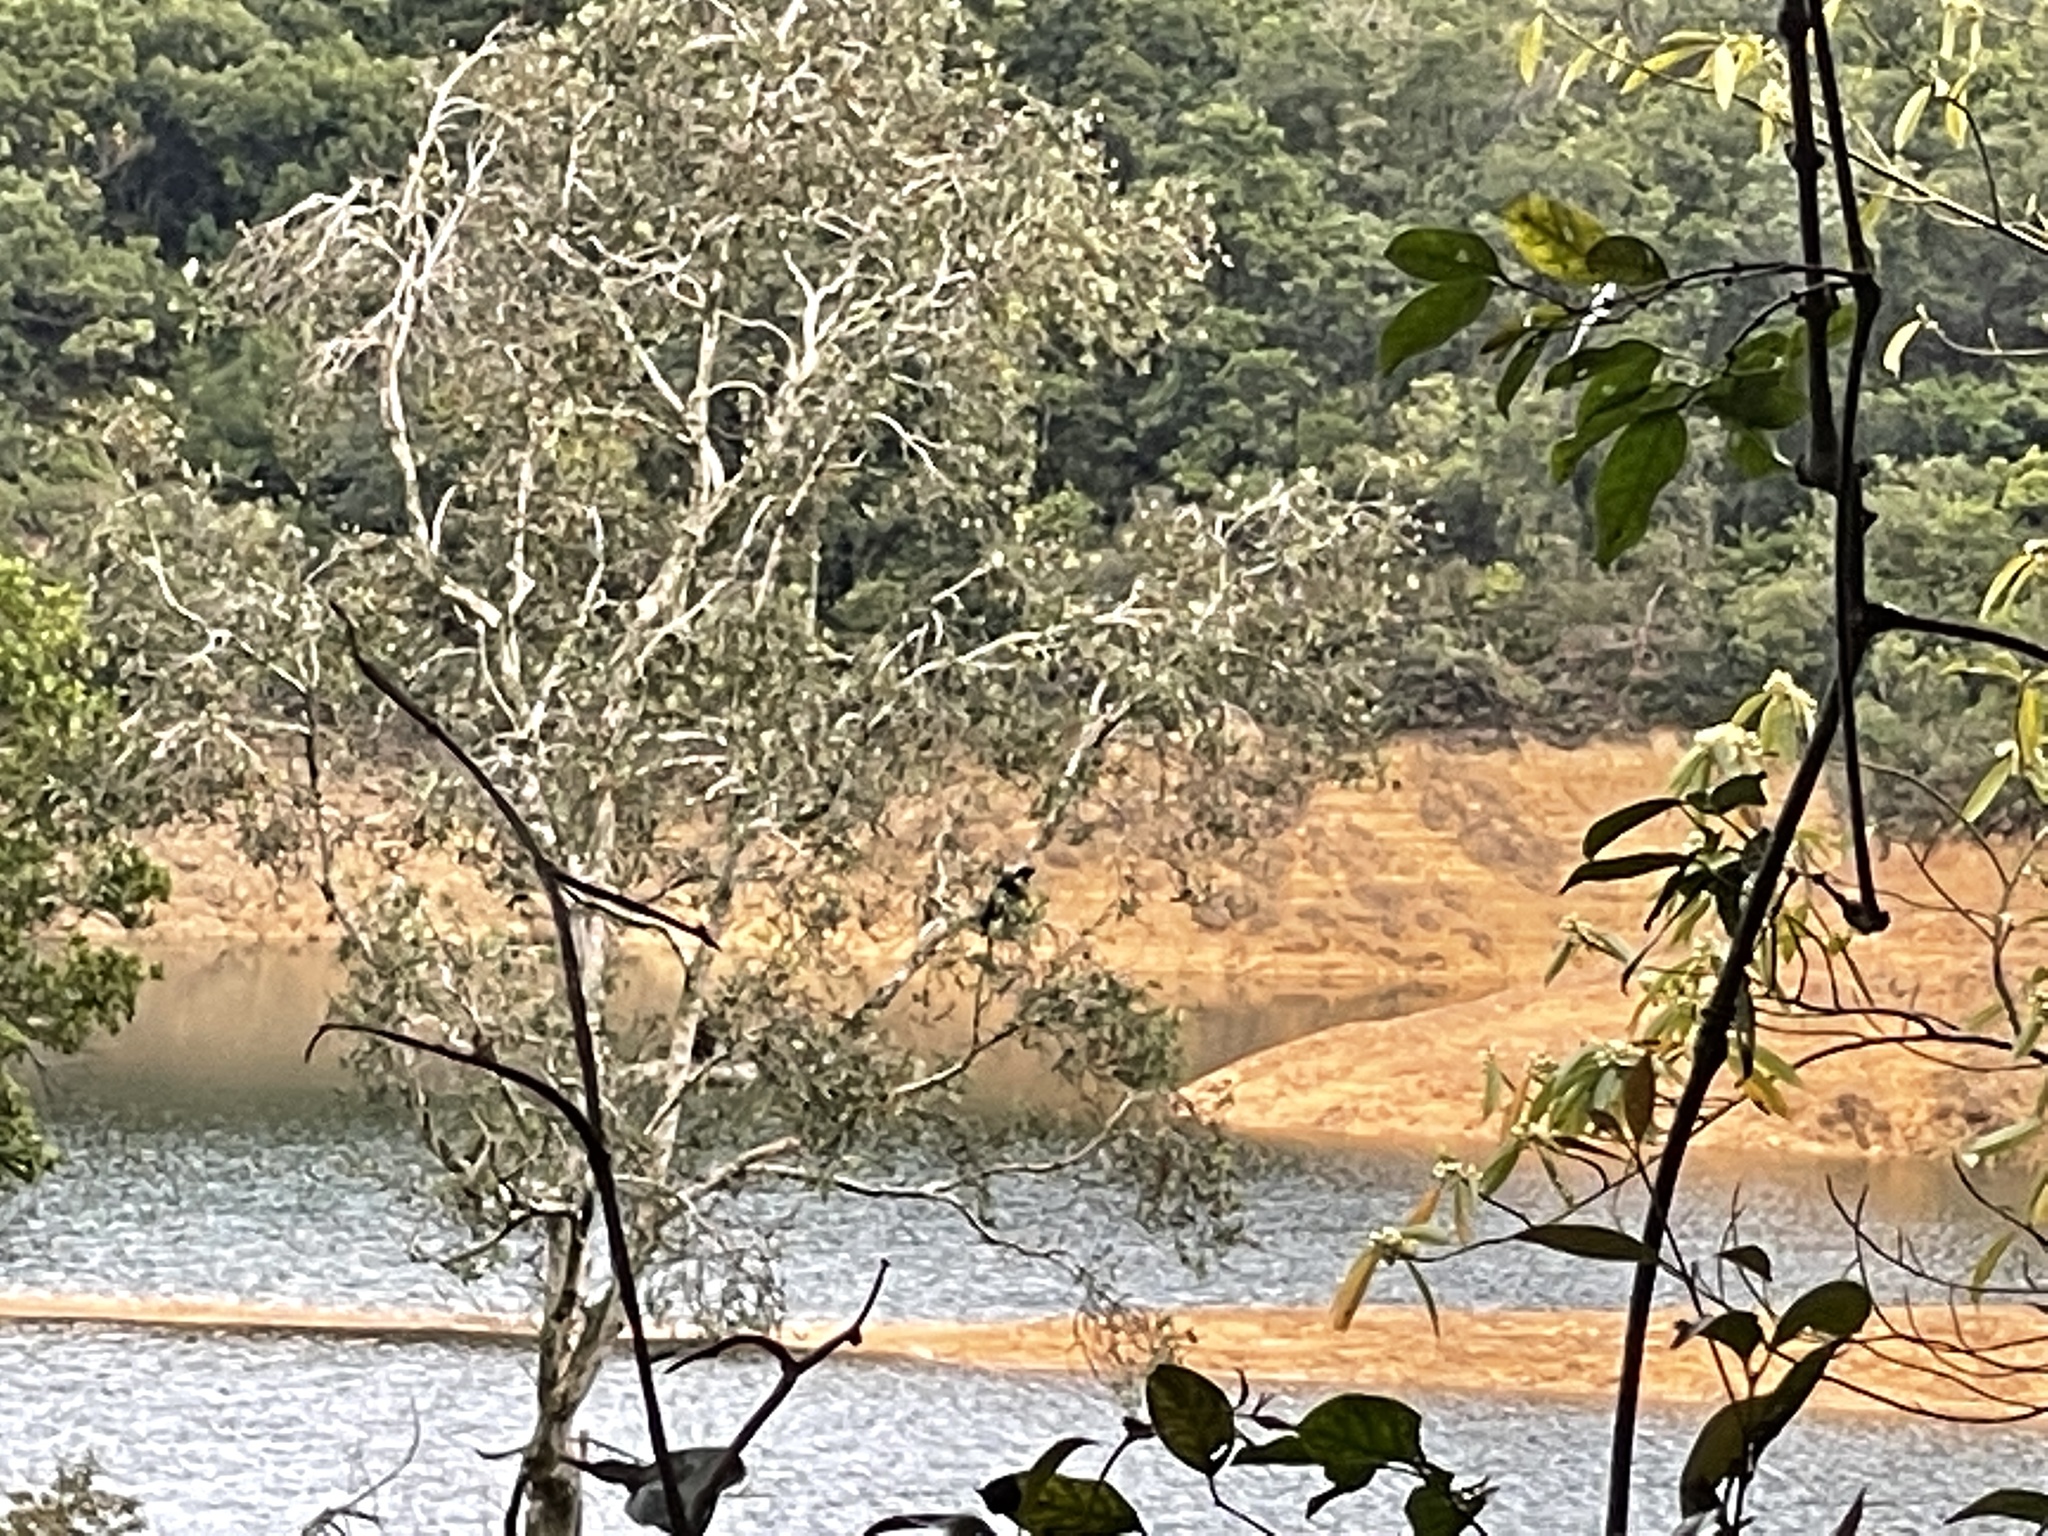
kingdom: Animalia
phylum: Chordata
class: Aves
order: Passeriformes
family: Corvidae
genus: Corvus
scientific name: Corvus pectoralis
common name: Collared crow
